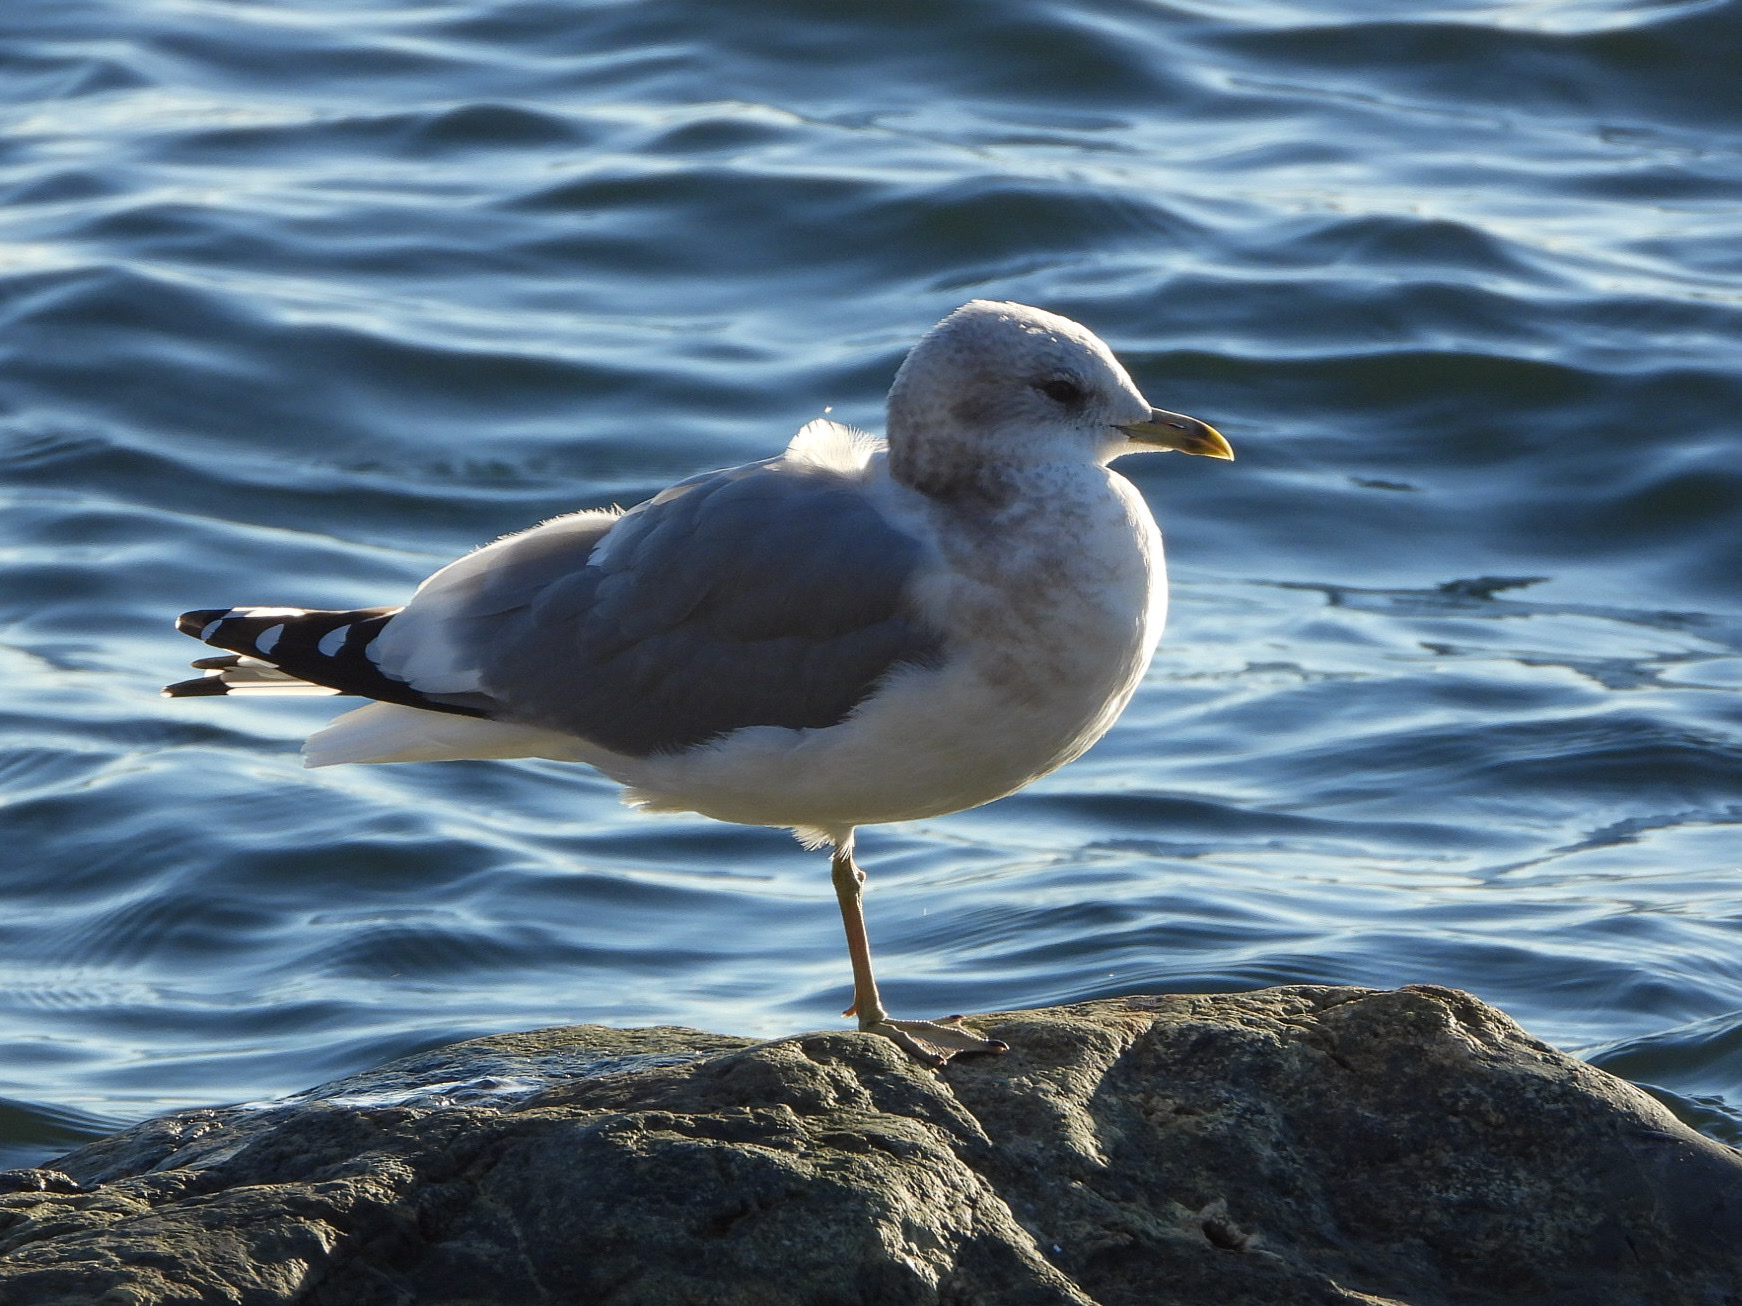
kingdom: Animalia
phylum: Chordata
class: Aves
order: Charadriiformes
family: Laridae
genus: Larus
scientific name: Larus brachyrhynchus
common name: Short-billed gull
